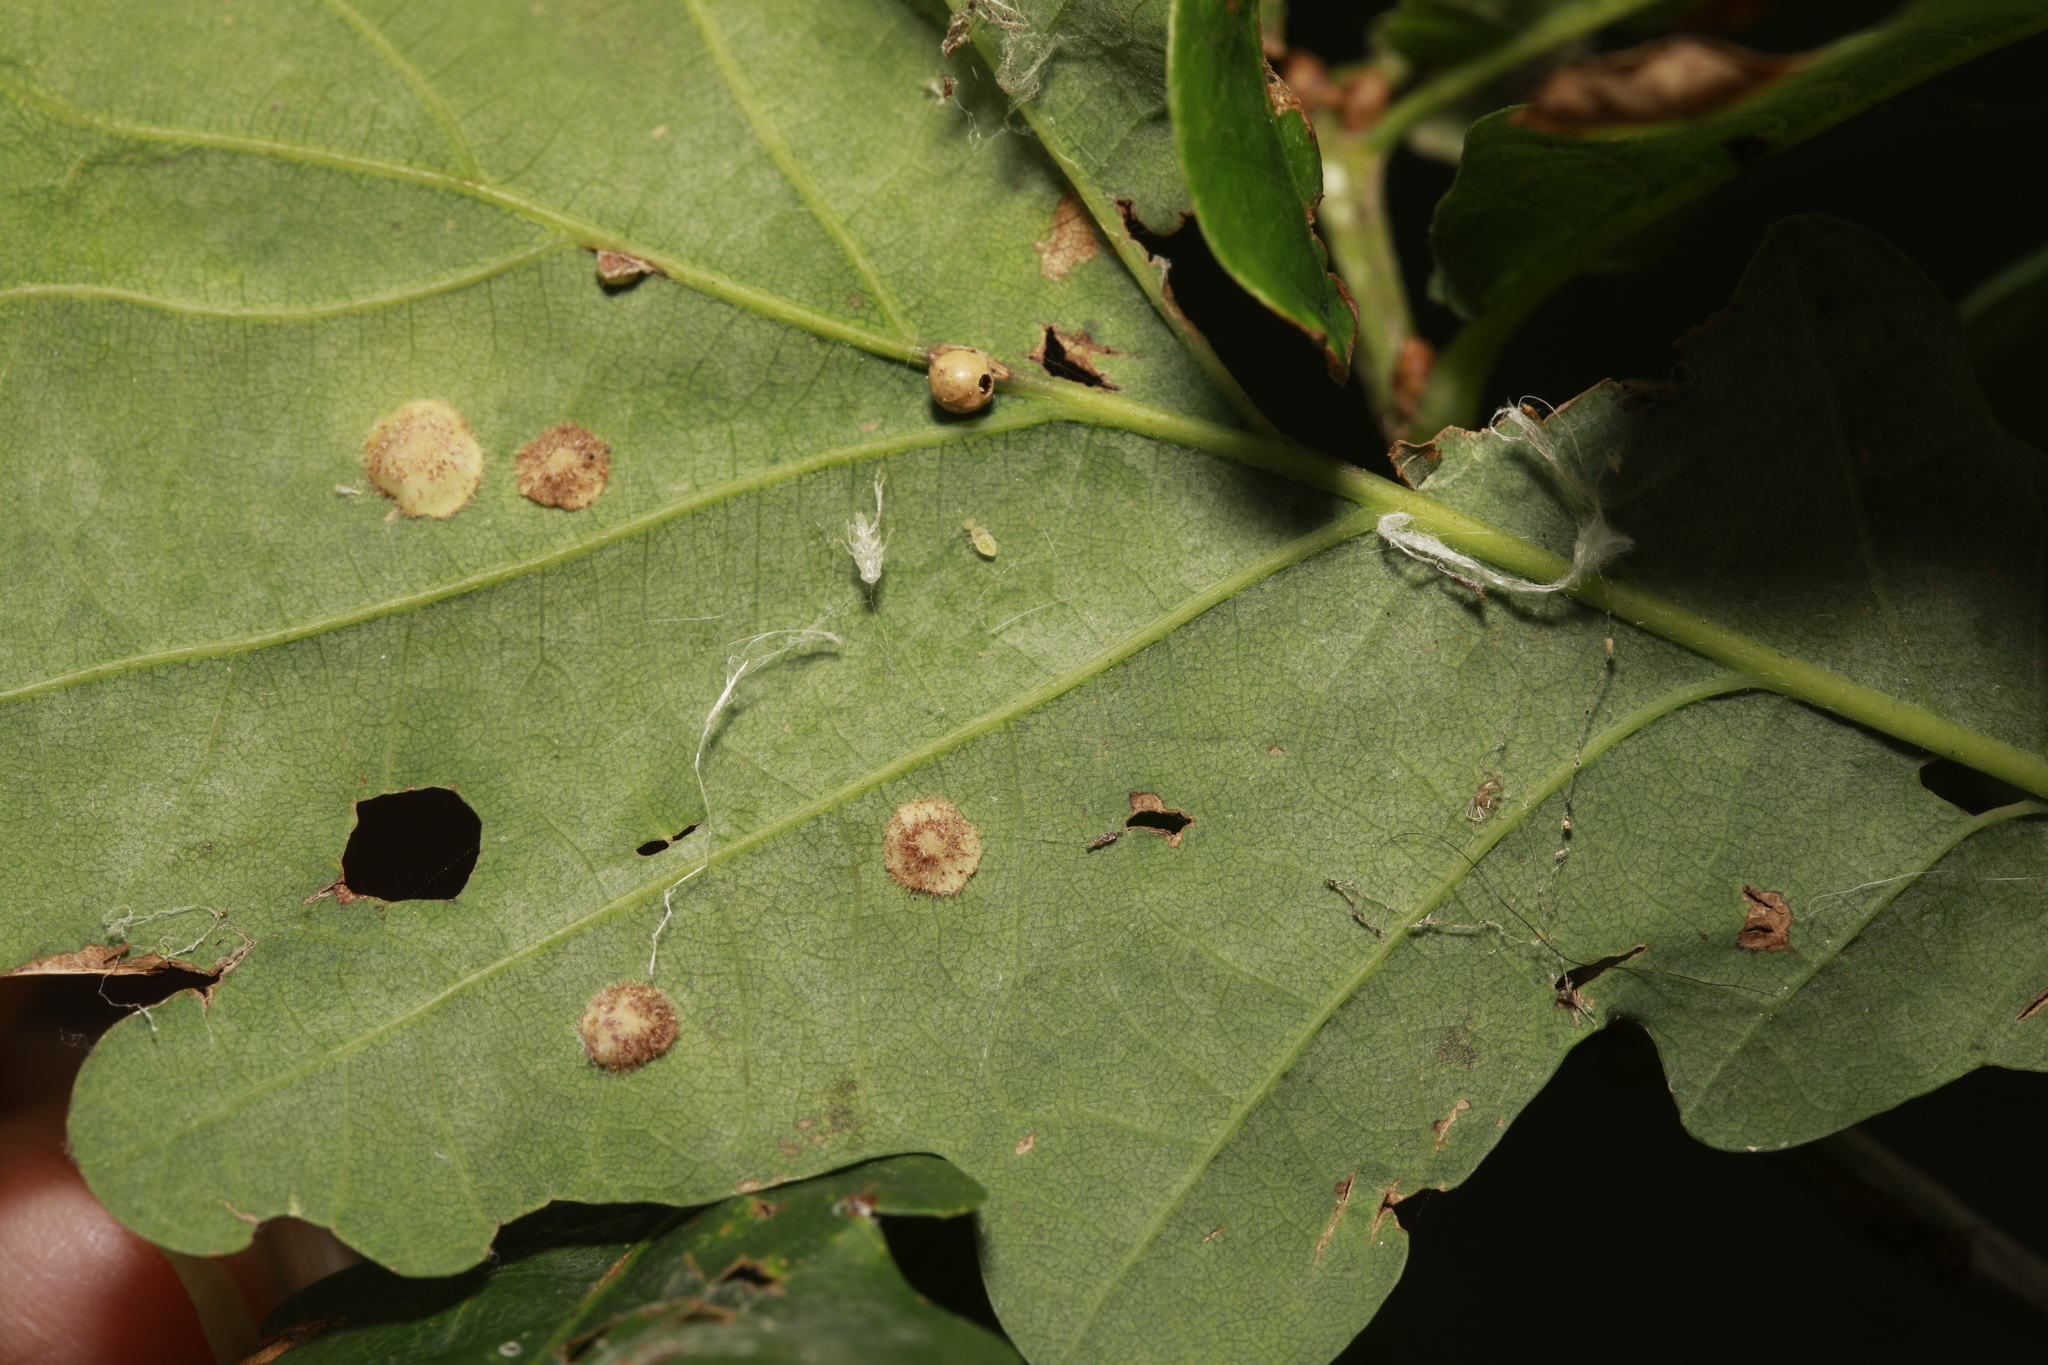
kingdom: Animalia
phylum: Arthropoda
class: Insecta
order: Hymenoptera
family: Cynipidae
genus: Neuroterus
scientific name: Neuroterus anthracinus
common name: Oyster gall
